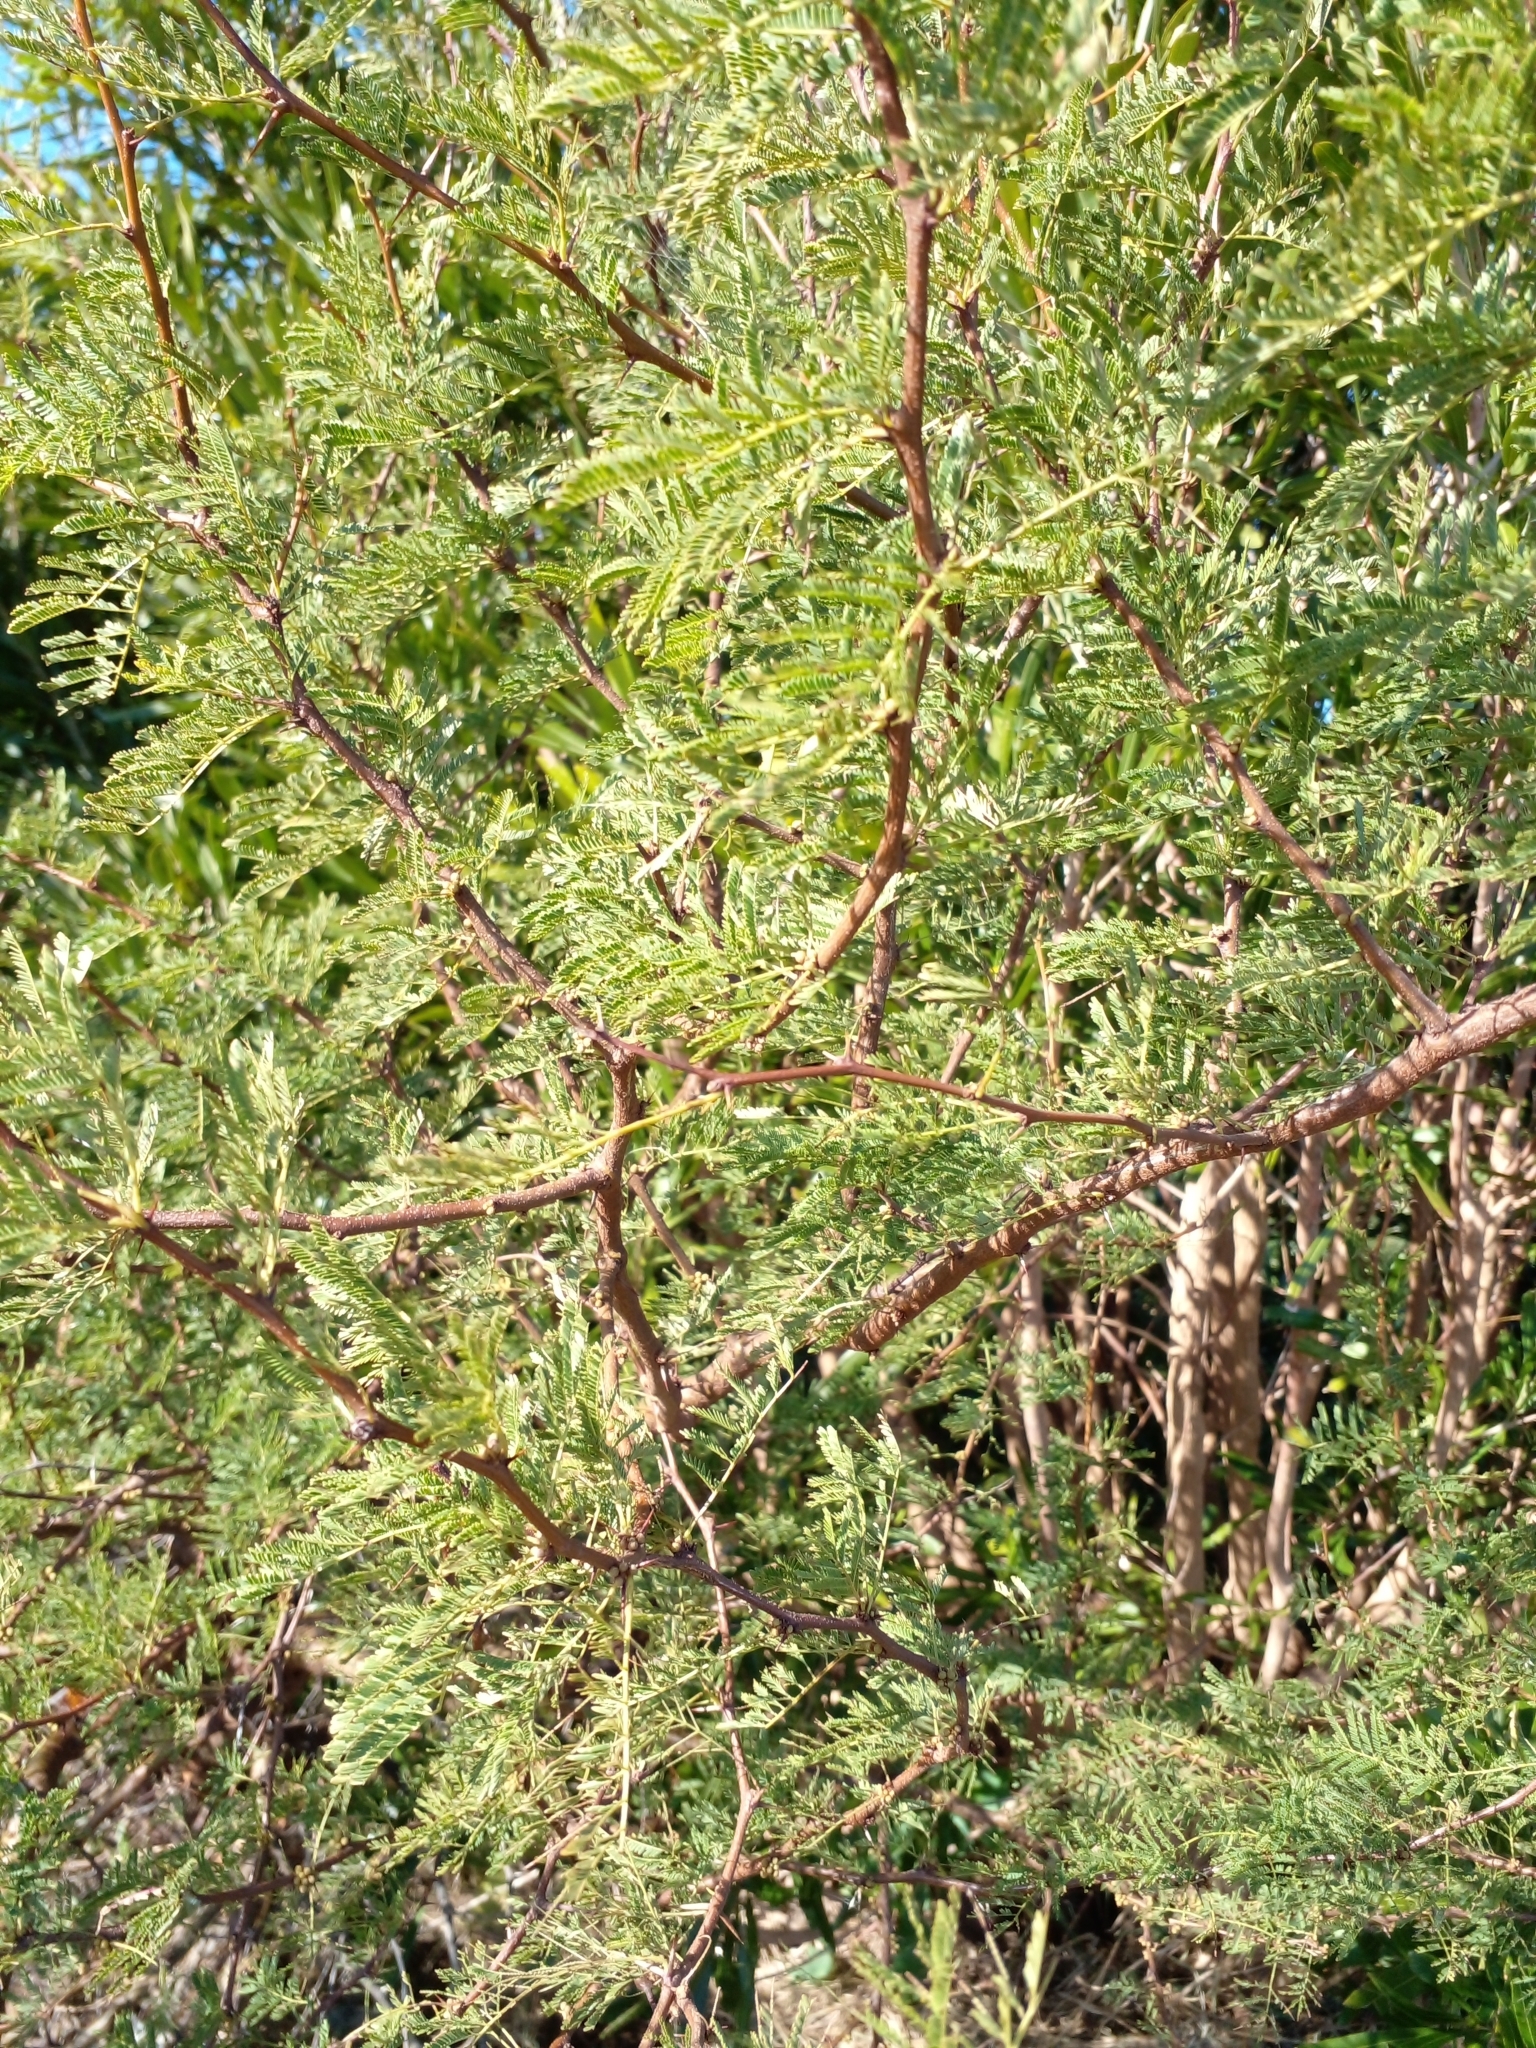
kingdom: Plantae
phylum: Tracheophyta
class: Magnoliopsida
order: Fabales
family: Fabaceae
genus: Vachellia
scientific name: Vachellia caven
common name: Roman cassie
